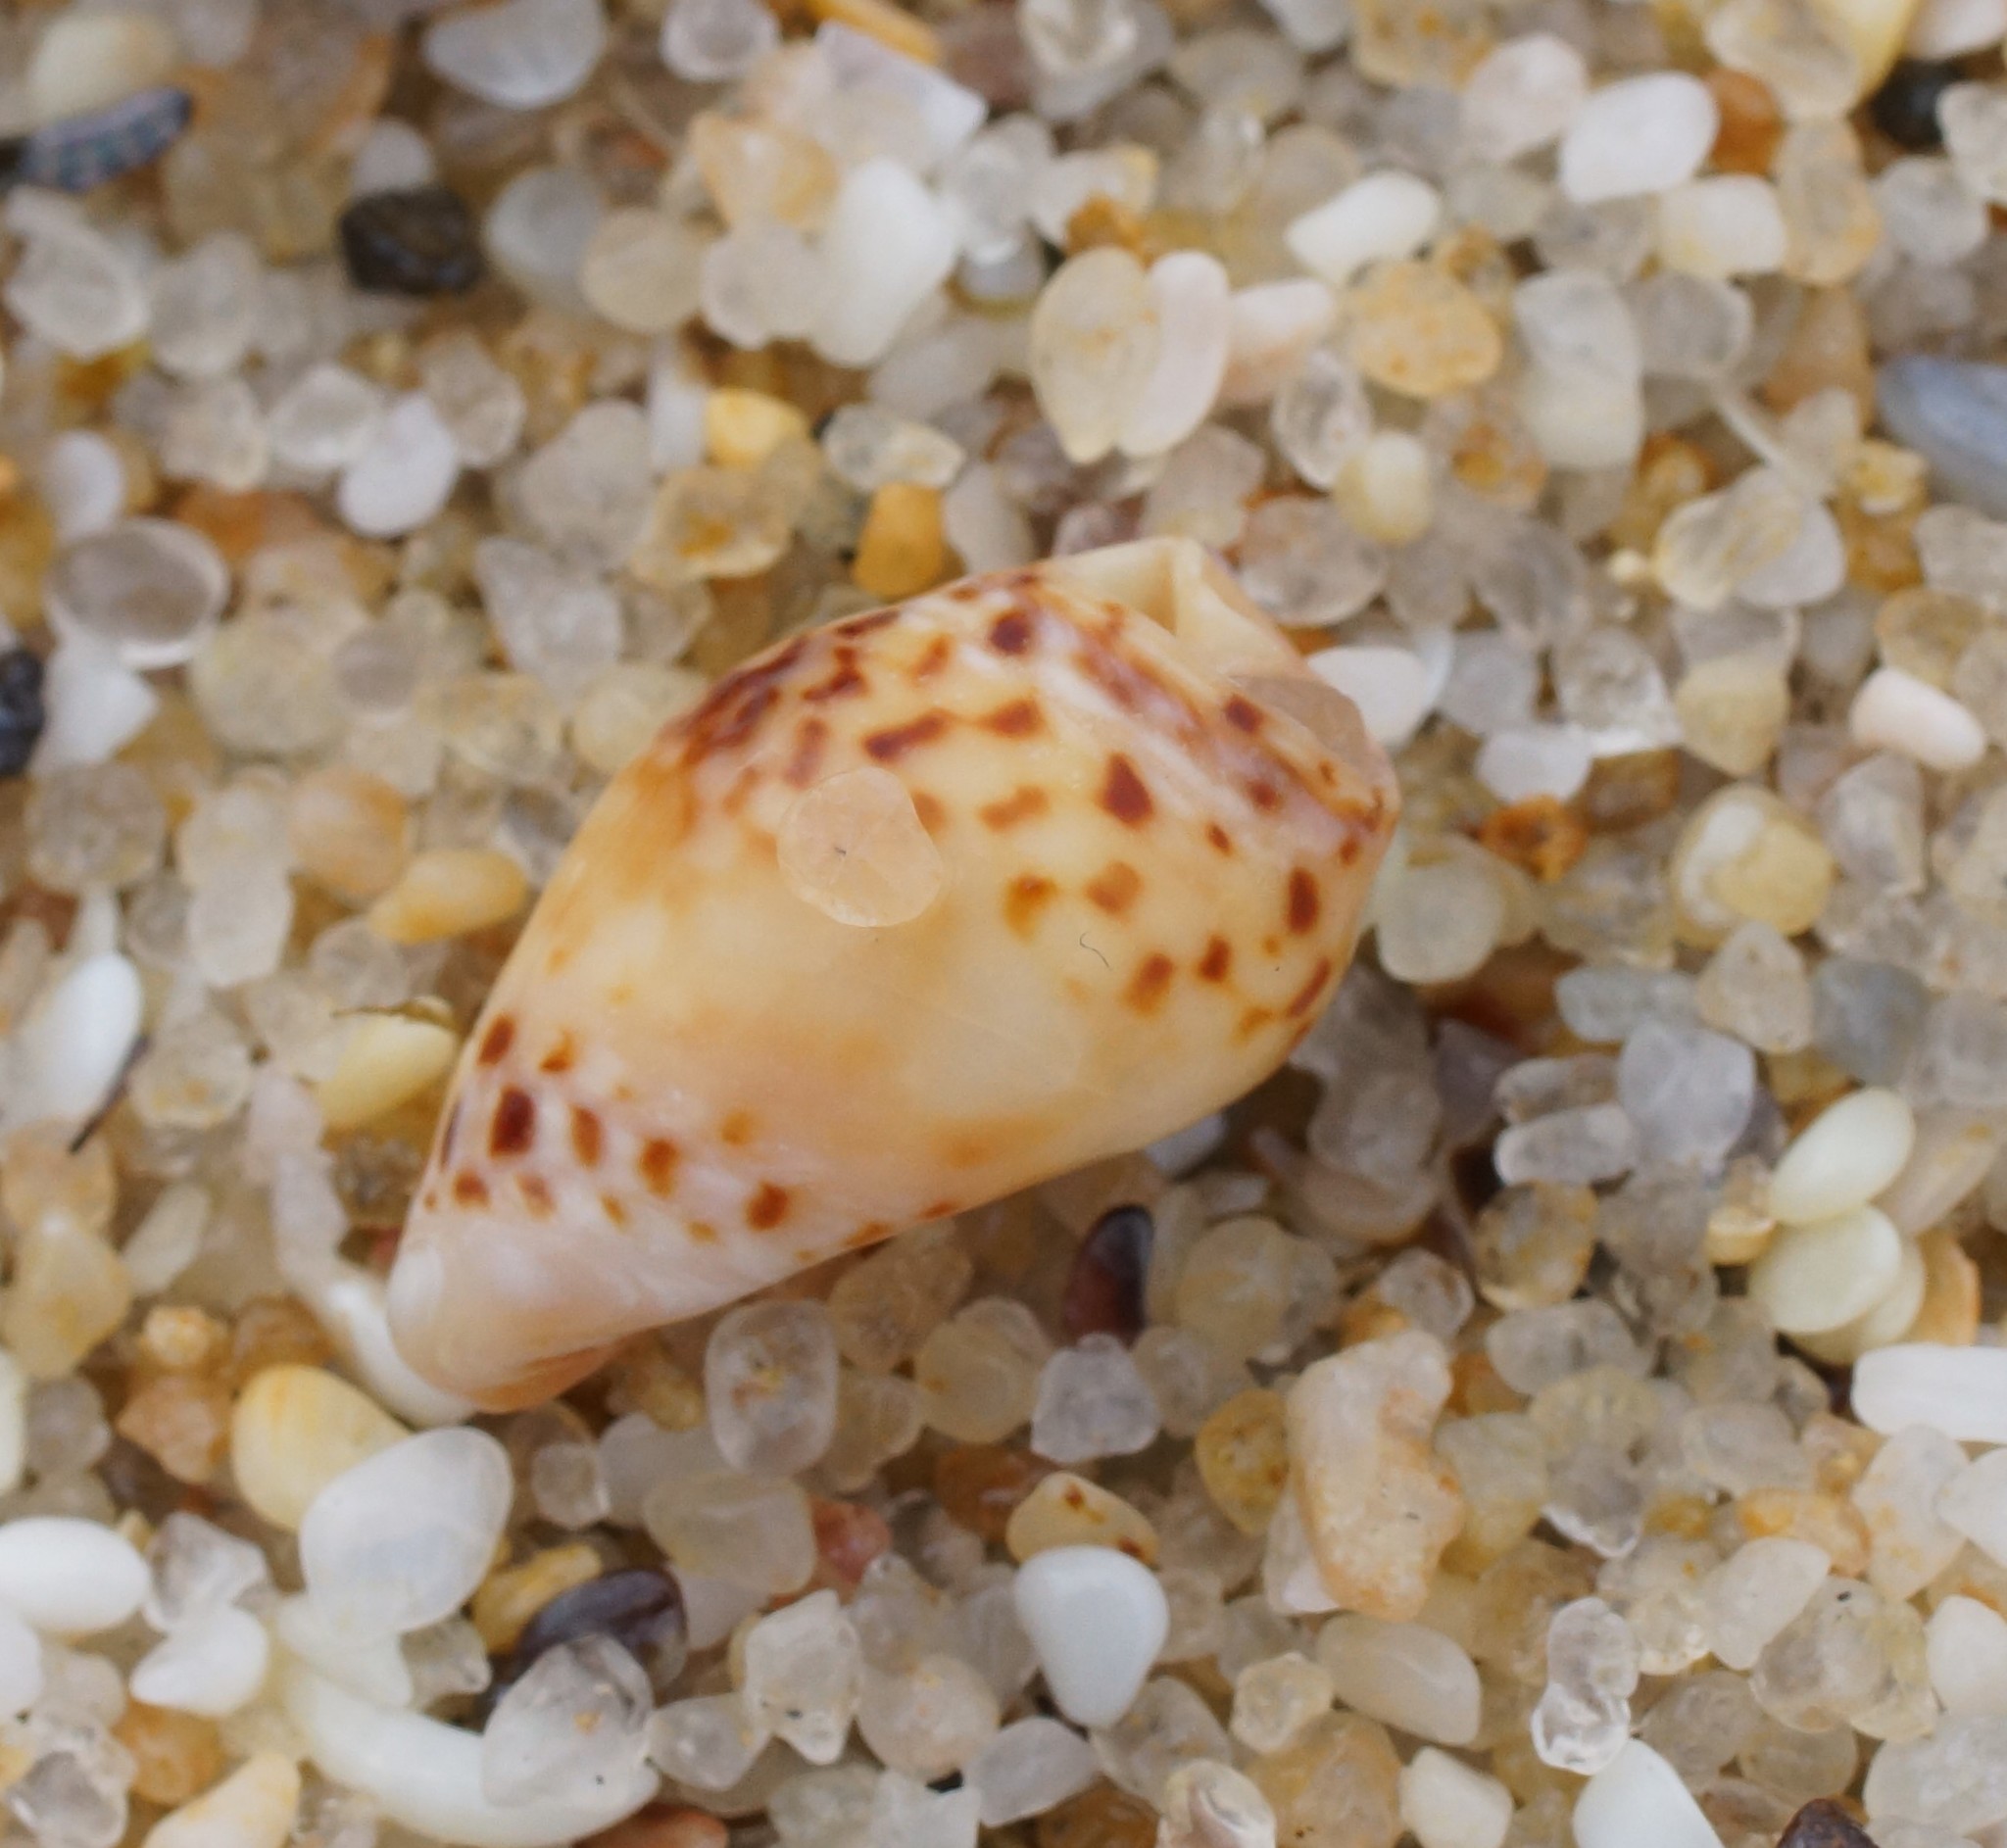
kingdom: Animalia
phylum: Mollusca
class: Gastropoda
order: Neogastropoda
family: Cominellidae
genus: Cominella
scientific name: Cominella lineolata
